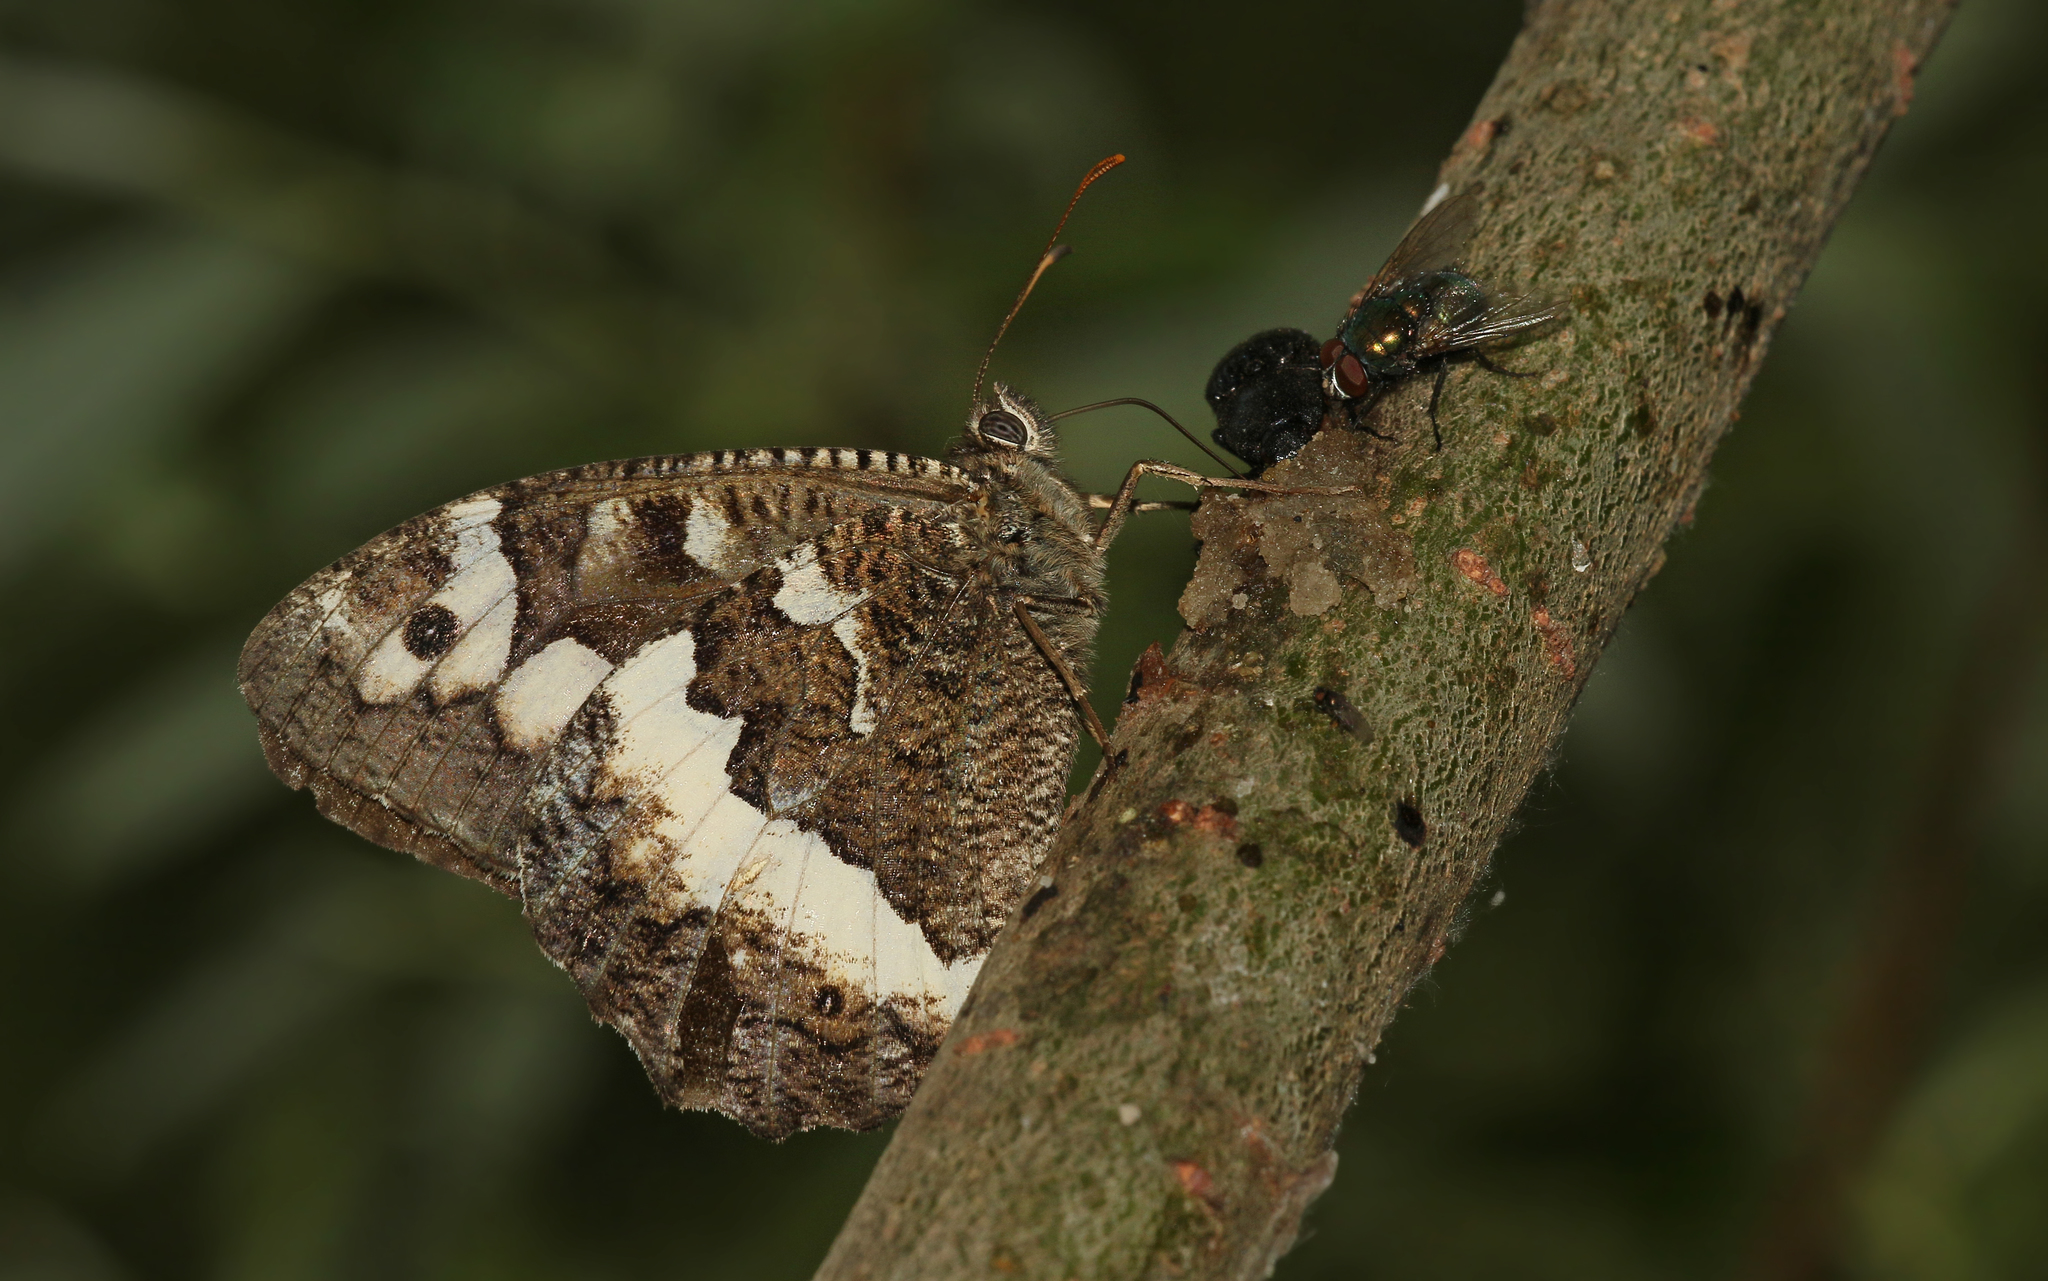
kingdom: Animalia
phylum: Arthropoda
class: Insecta
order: Lepidoptera
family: Lycaenidae
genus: Loweia
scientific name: Loweia tityrus
